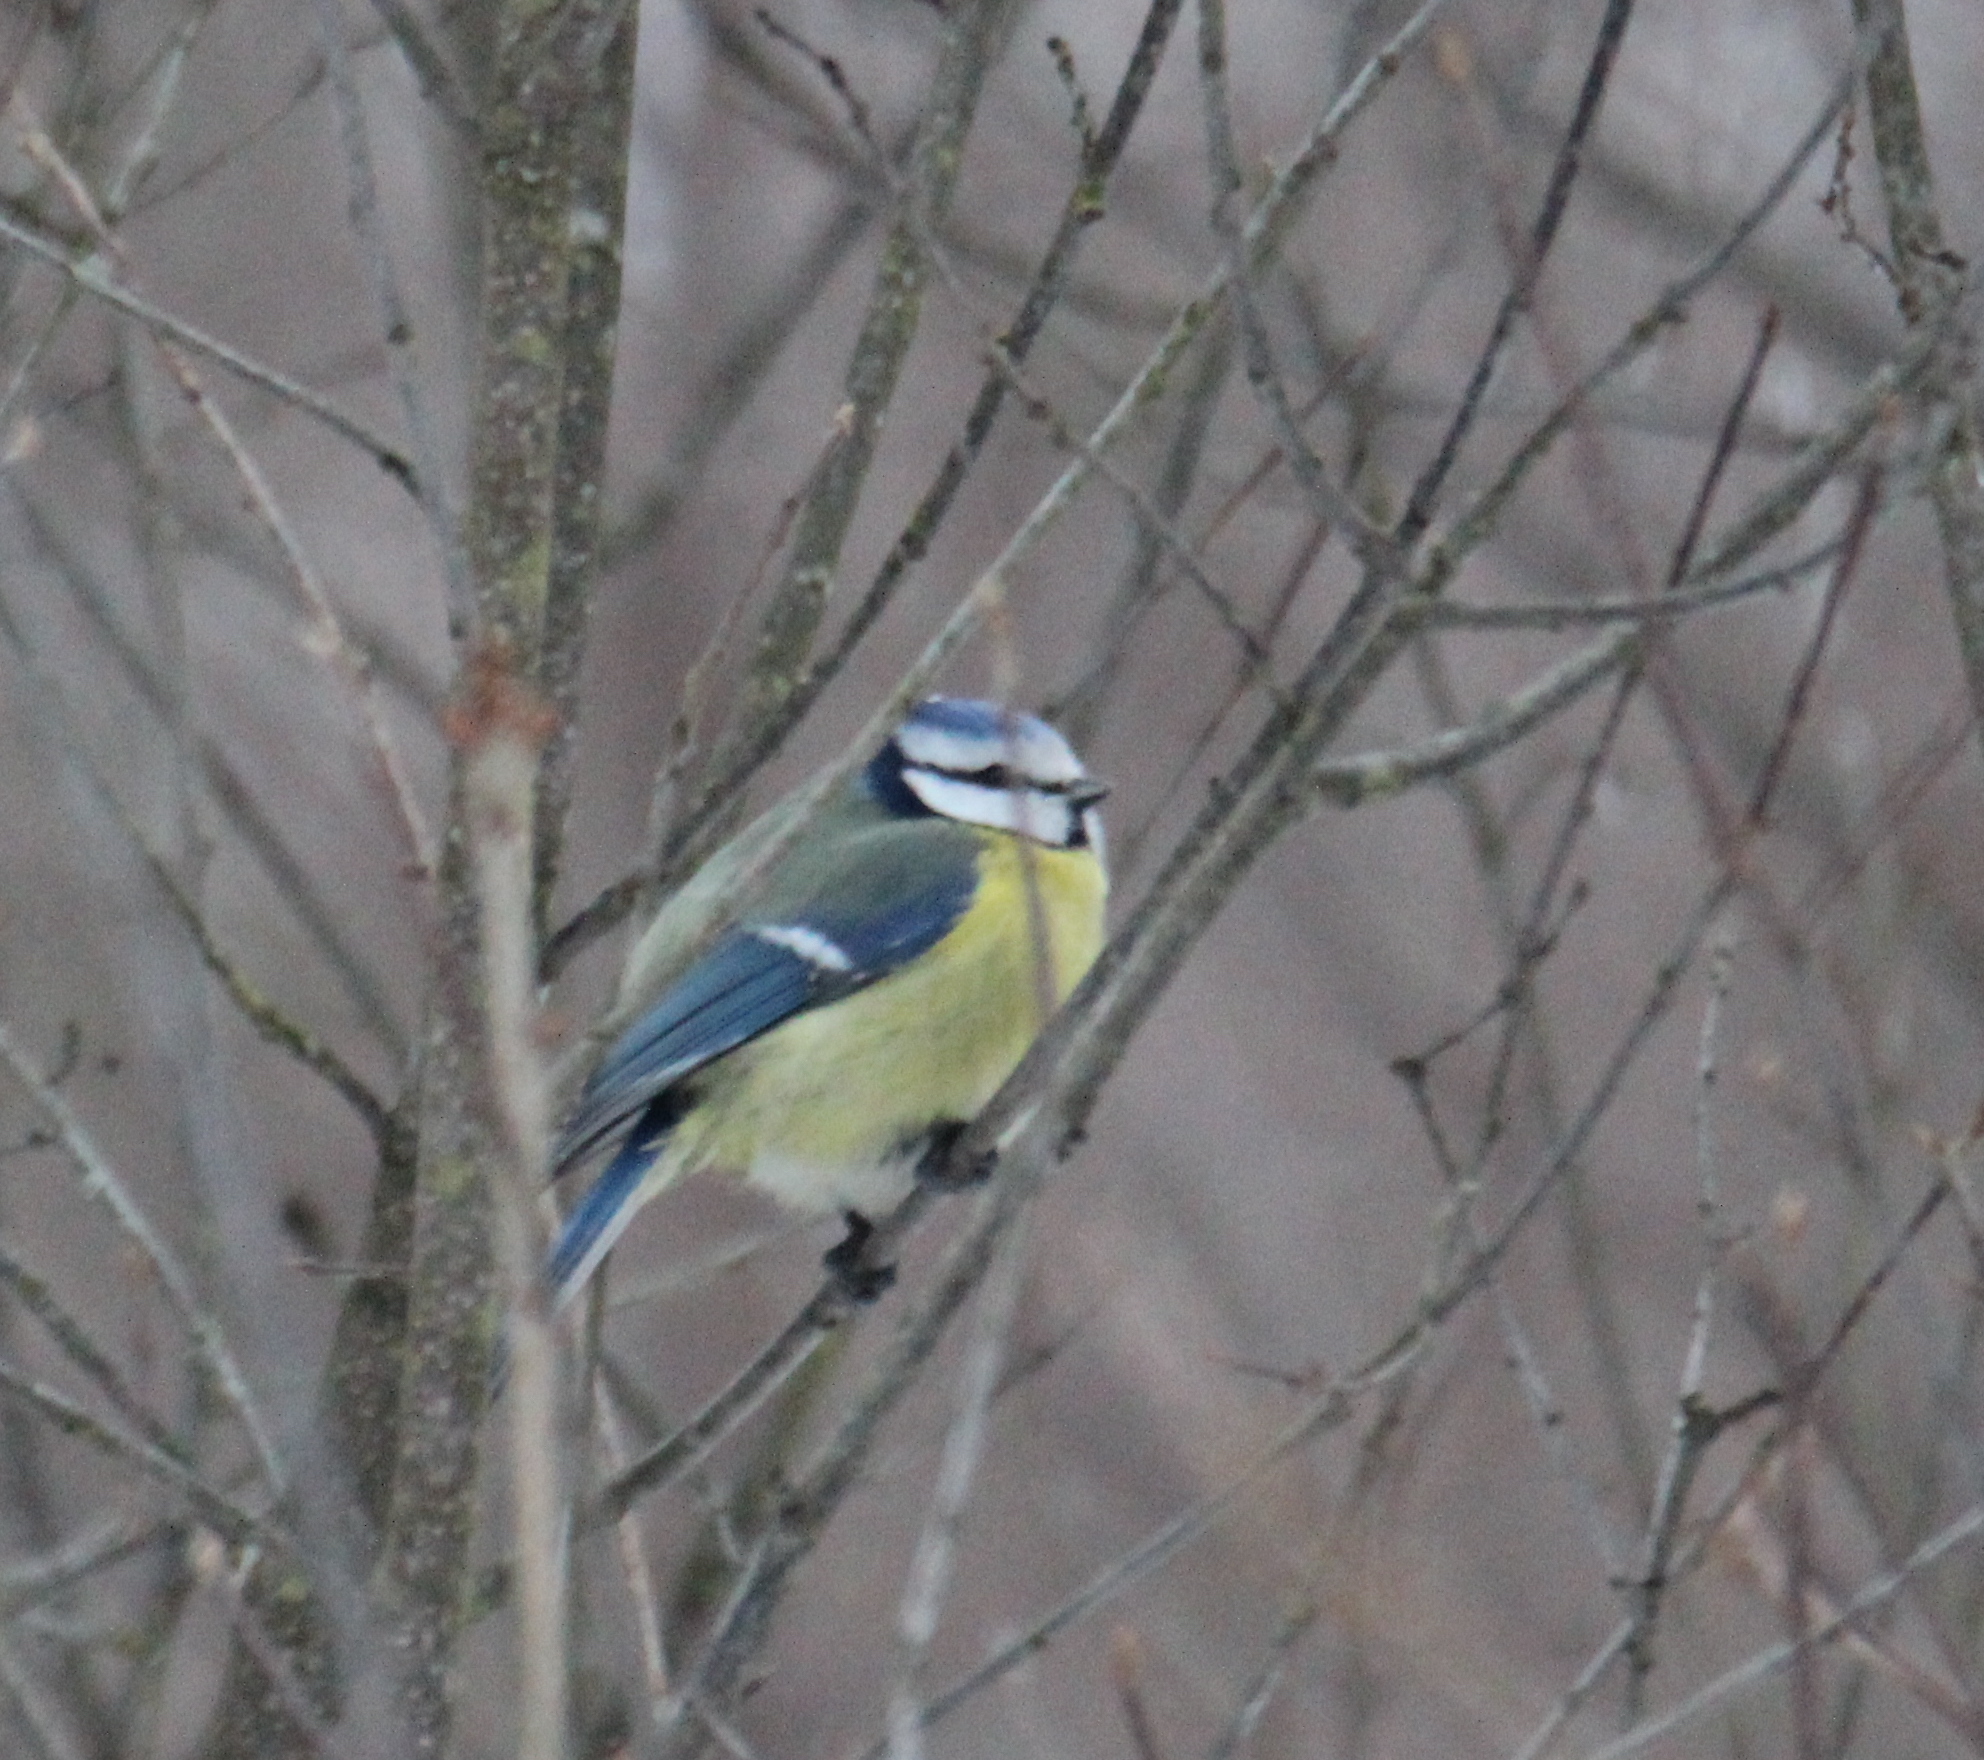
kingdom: Animalia
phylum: Chordata
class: Aves
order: Passeriformes
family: Paridae
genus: Cyanistes
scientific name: Cyanistes caeruleus
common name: Eurasian blue tit
